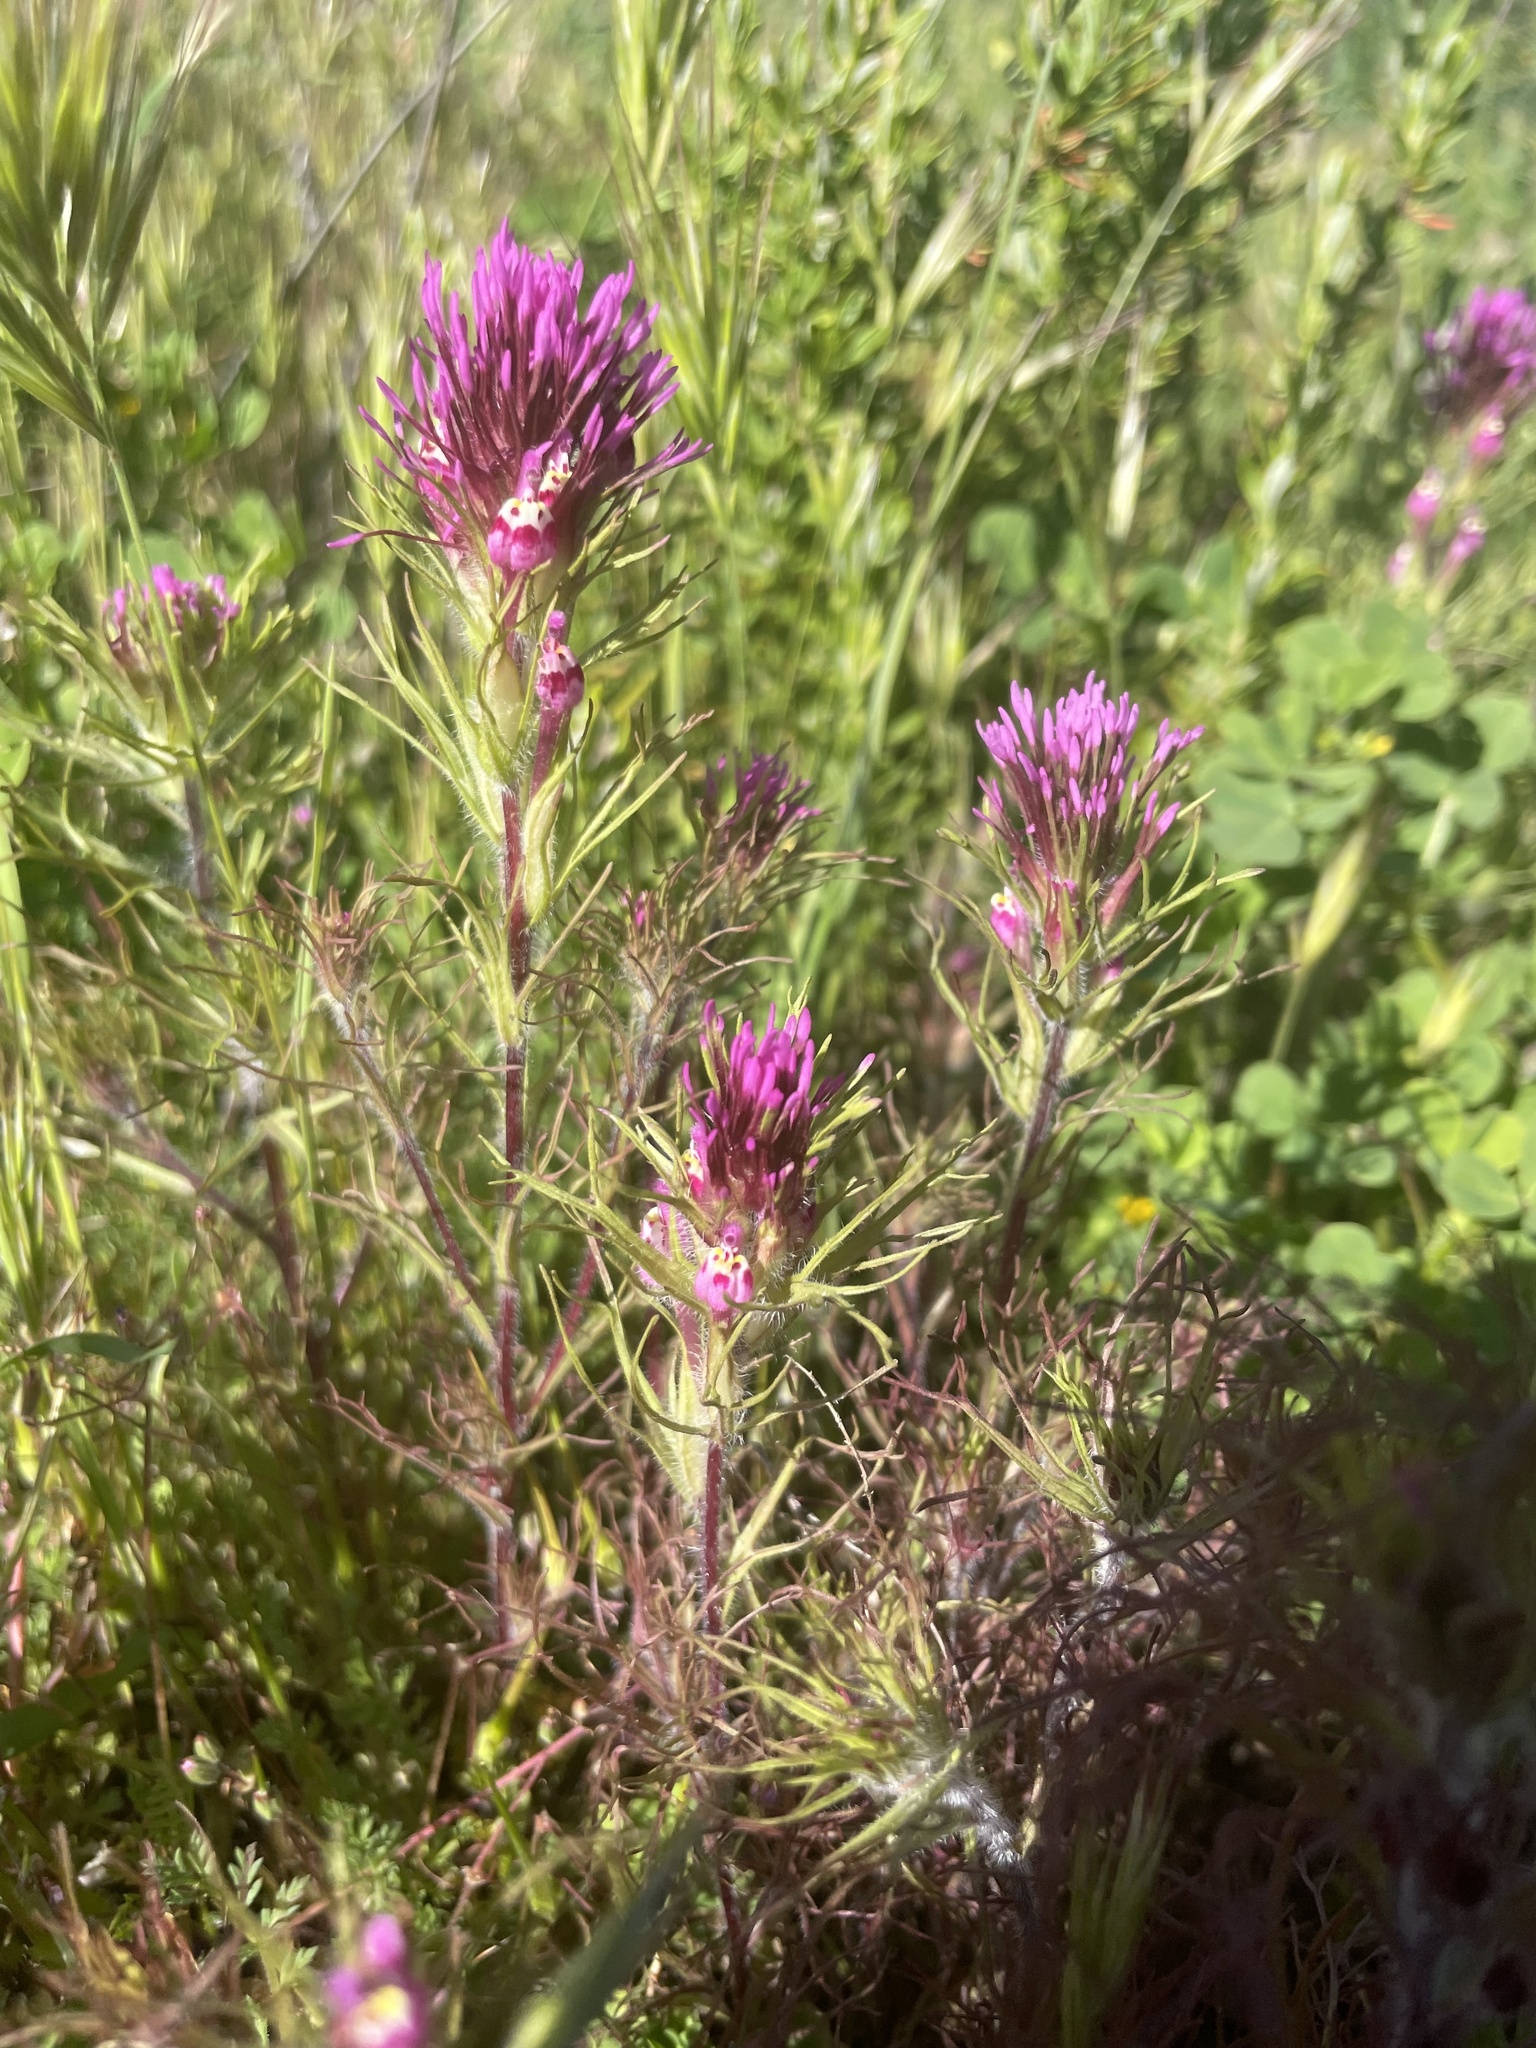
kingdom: Plantae
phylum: Tracheophyta
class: Magnoliopsida
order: Lamiales
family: Orobanchaceae
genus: Castilleja
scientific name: Castilleja exserta
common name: Purple owl-clover
